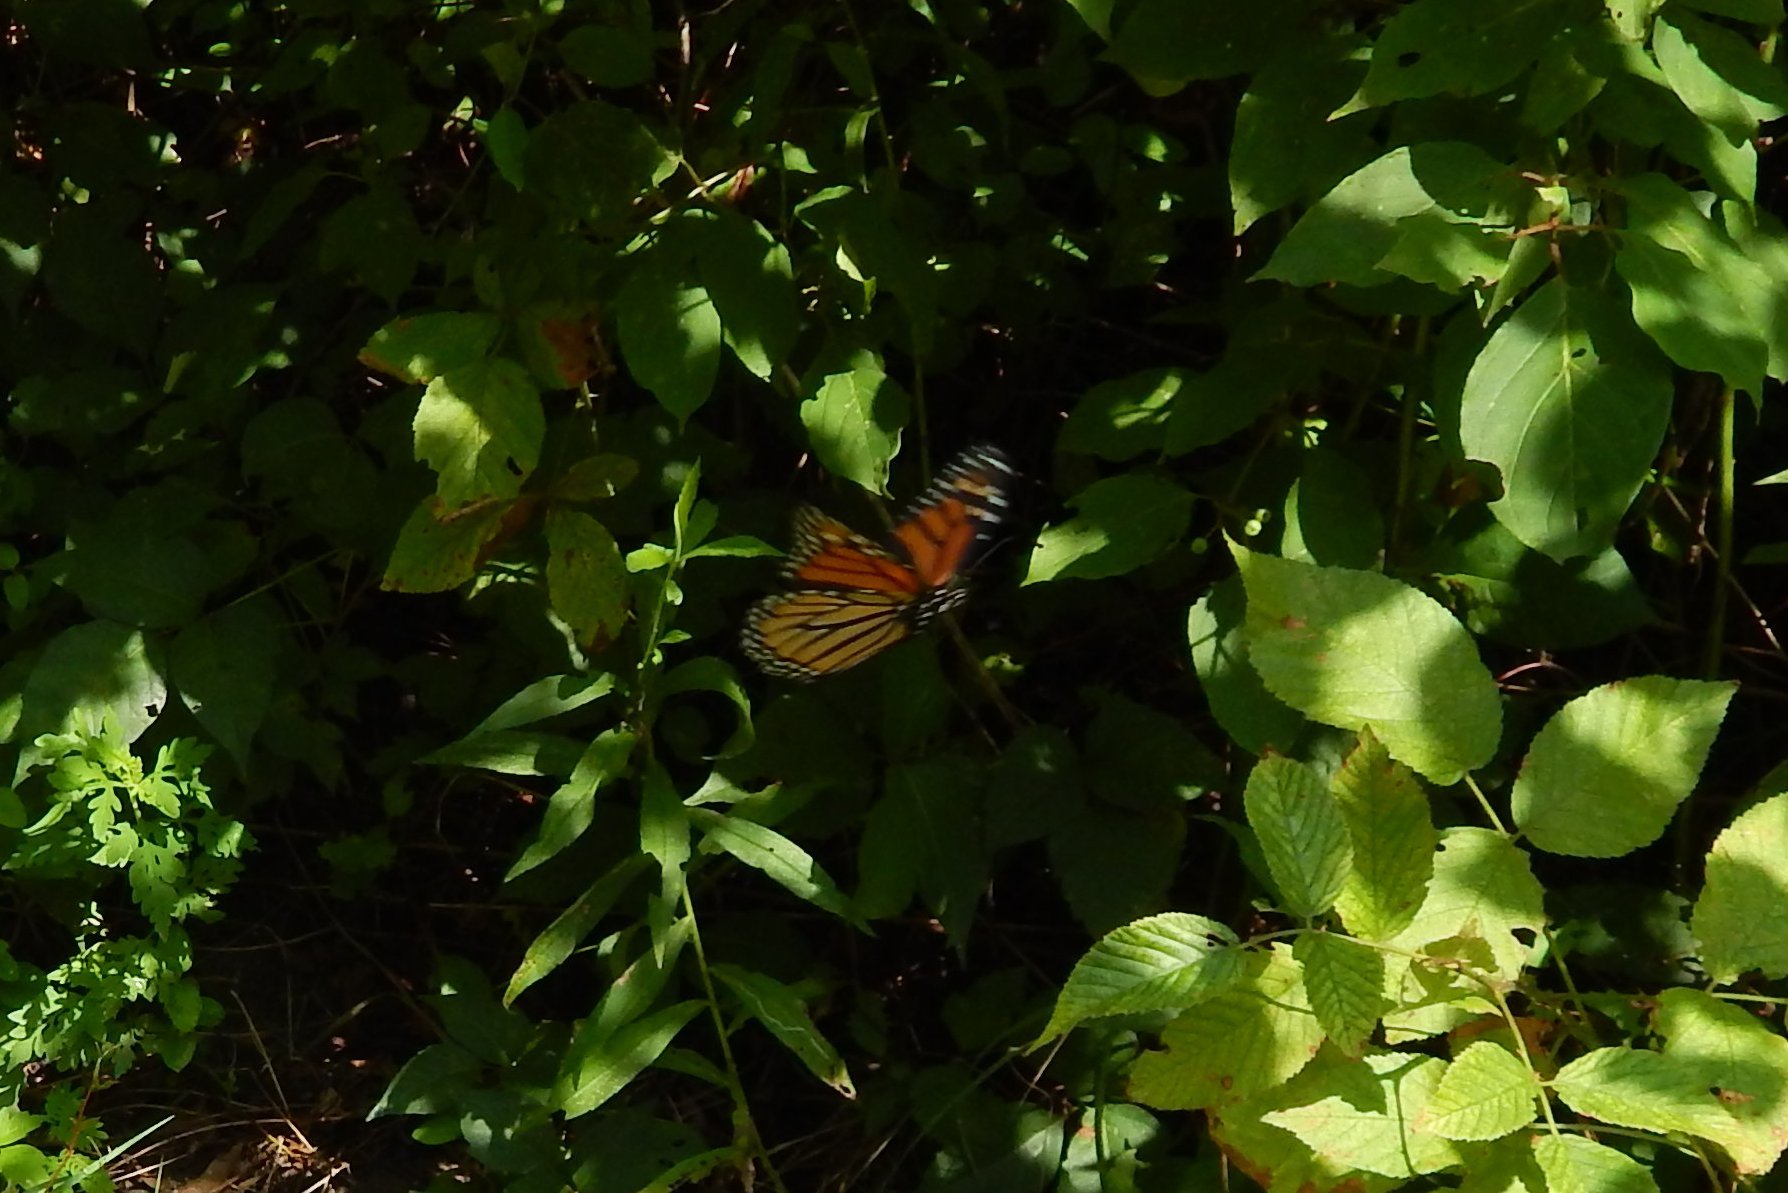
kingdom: Animalia
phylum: Arthropoda
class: Insecta
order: Lepidoptera
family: Nymphalidae
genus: Danaus
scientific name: Danaus plexippus
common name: Monarch
